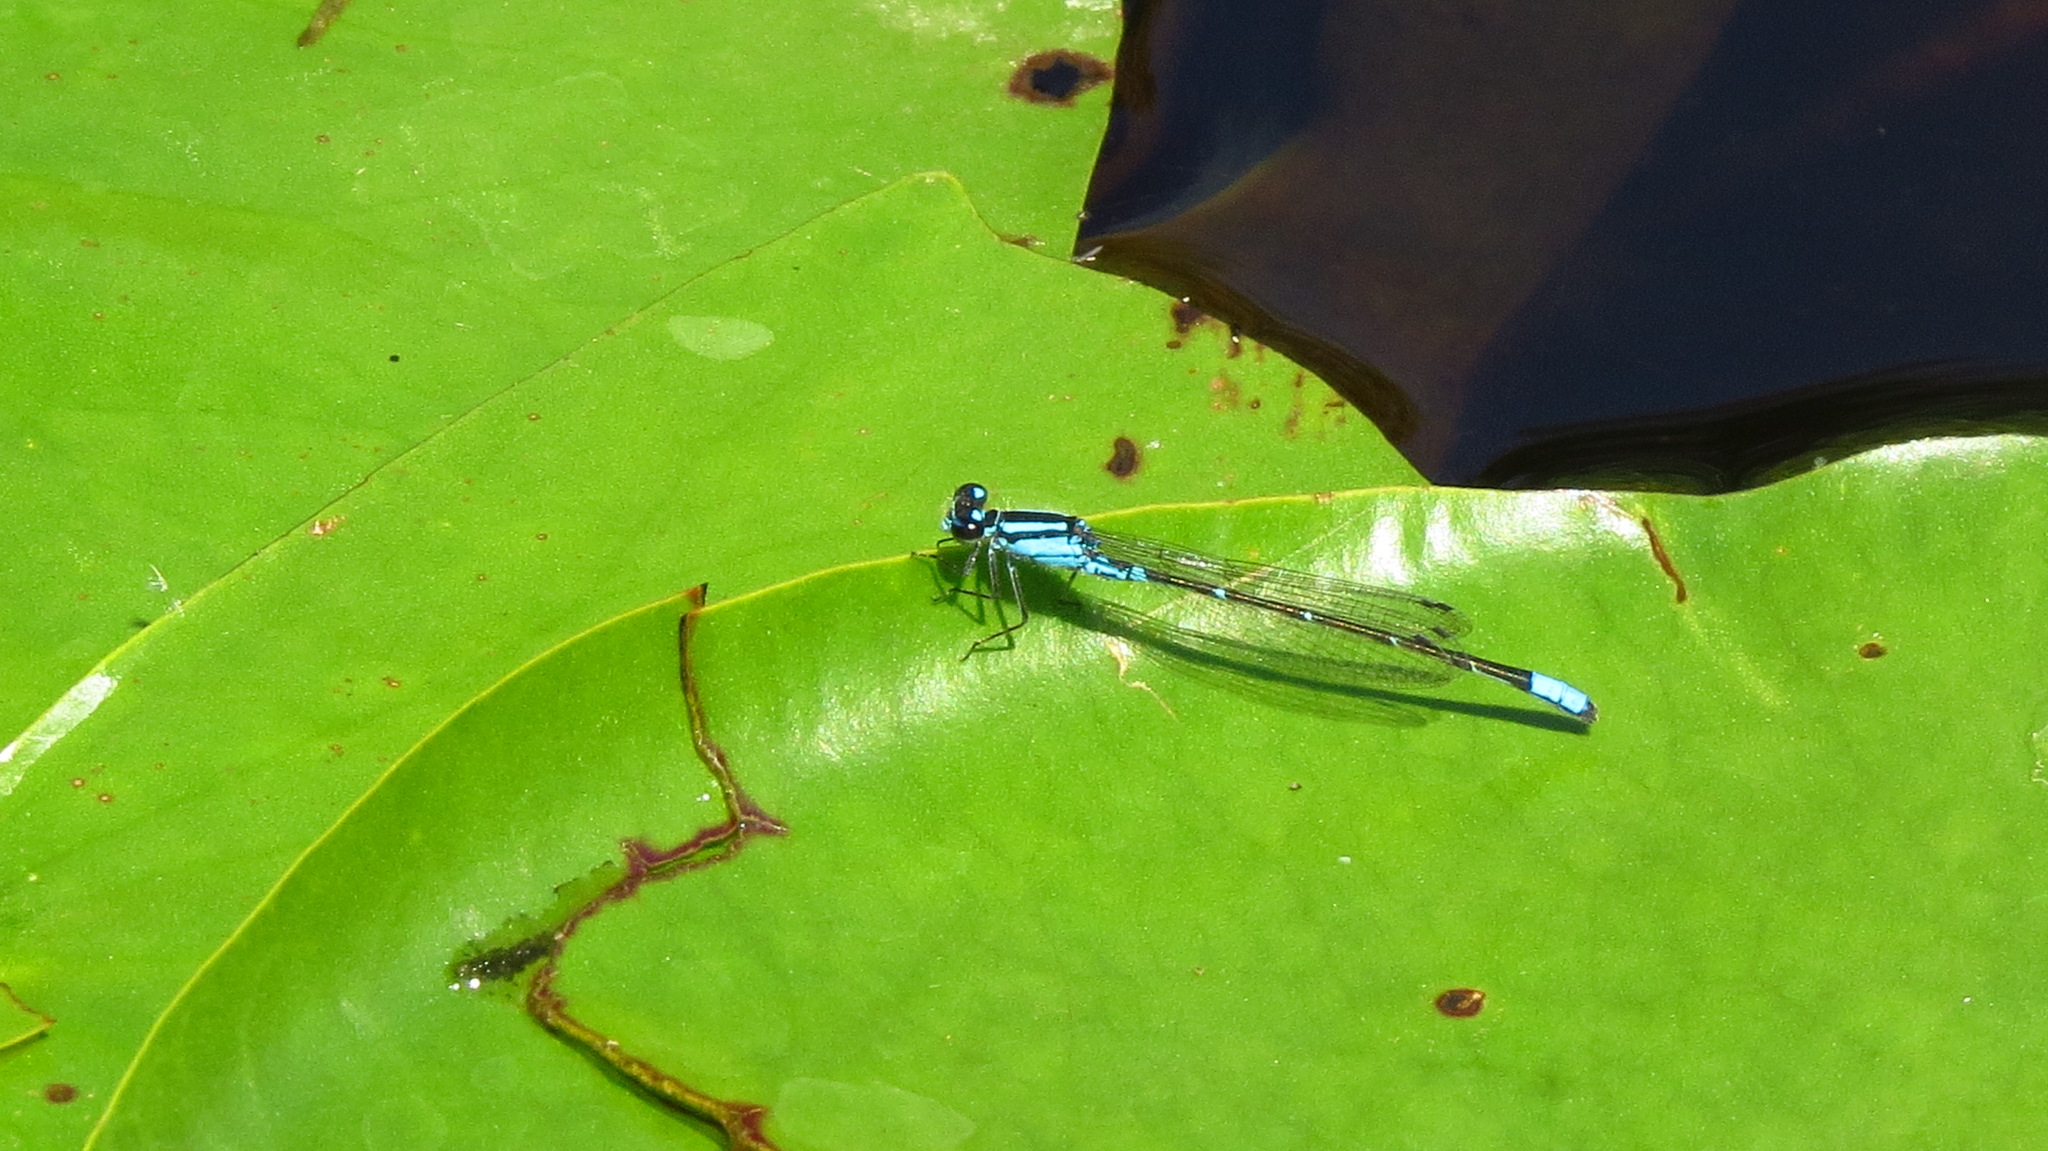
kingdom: Animalia
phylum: Arthropoda
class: Insecta
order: Odonata
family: Coenagrionidae
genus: Enallagma
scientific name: Enallagma geminatum
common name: Skimming bluet
